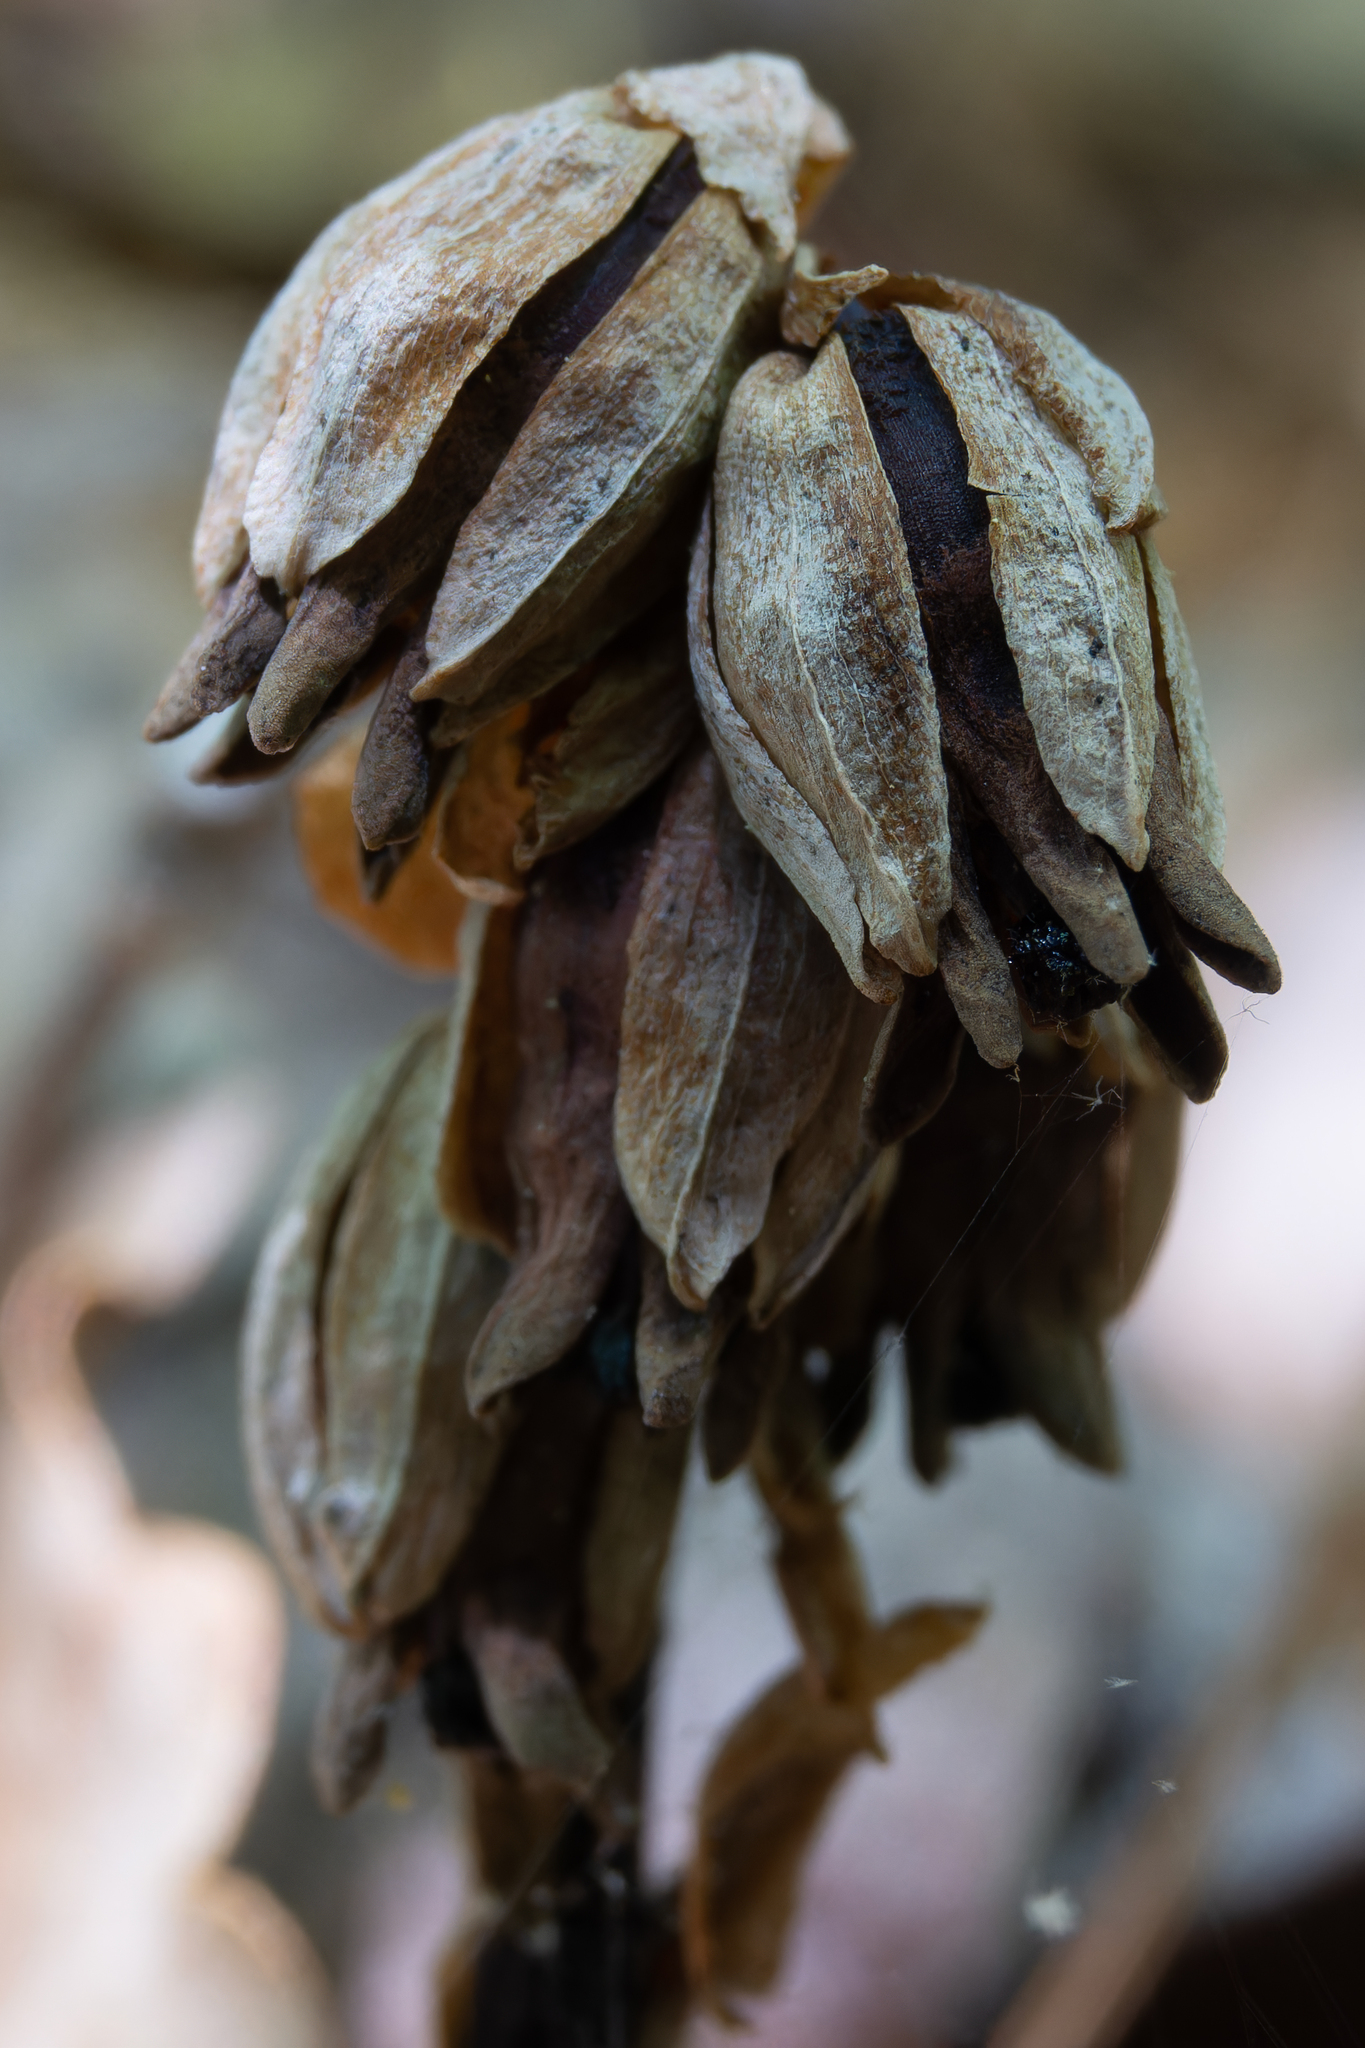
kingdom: Plantae
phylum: Tracheophyta
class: Magnoliopsida
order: Ericales
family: Ericaceae
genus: Monotropsis
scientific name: Monotropsis odorata
